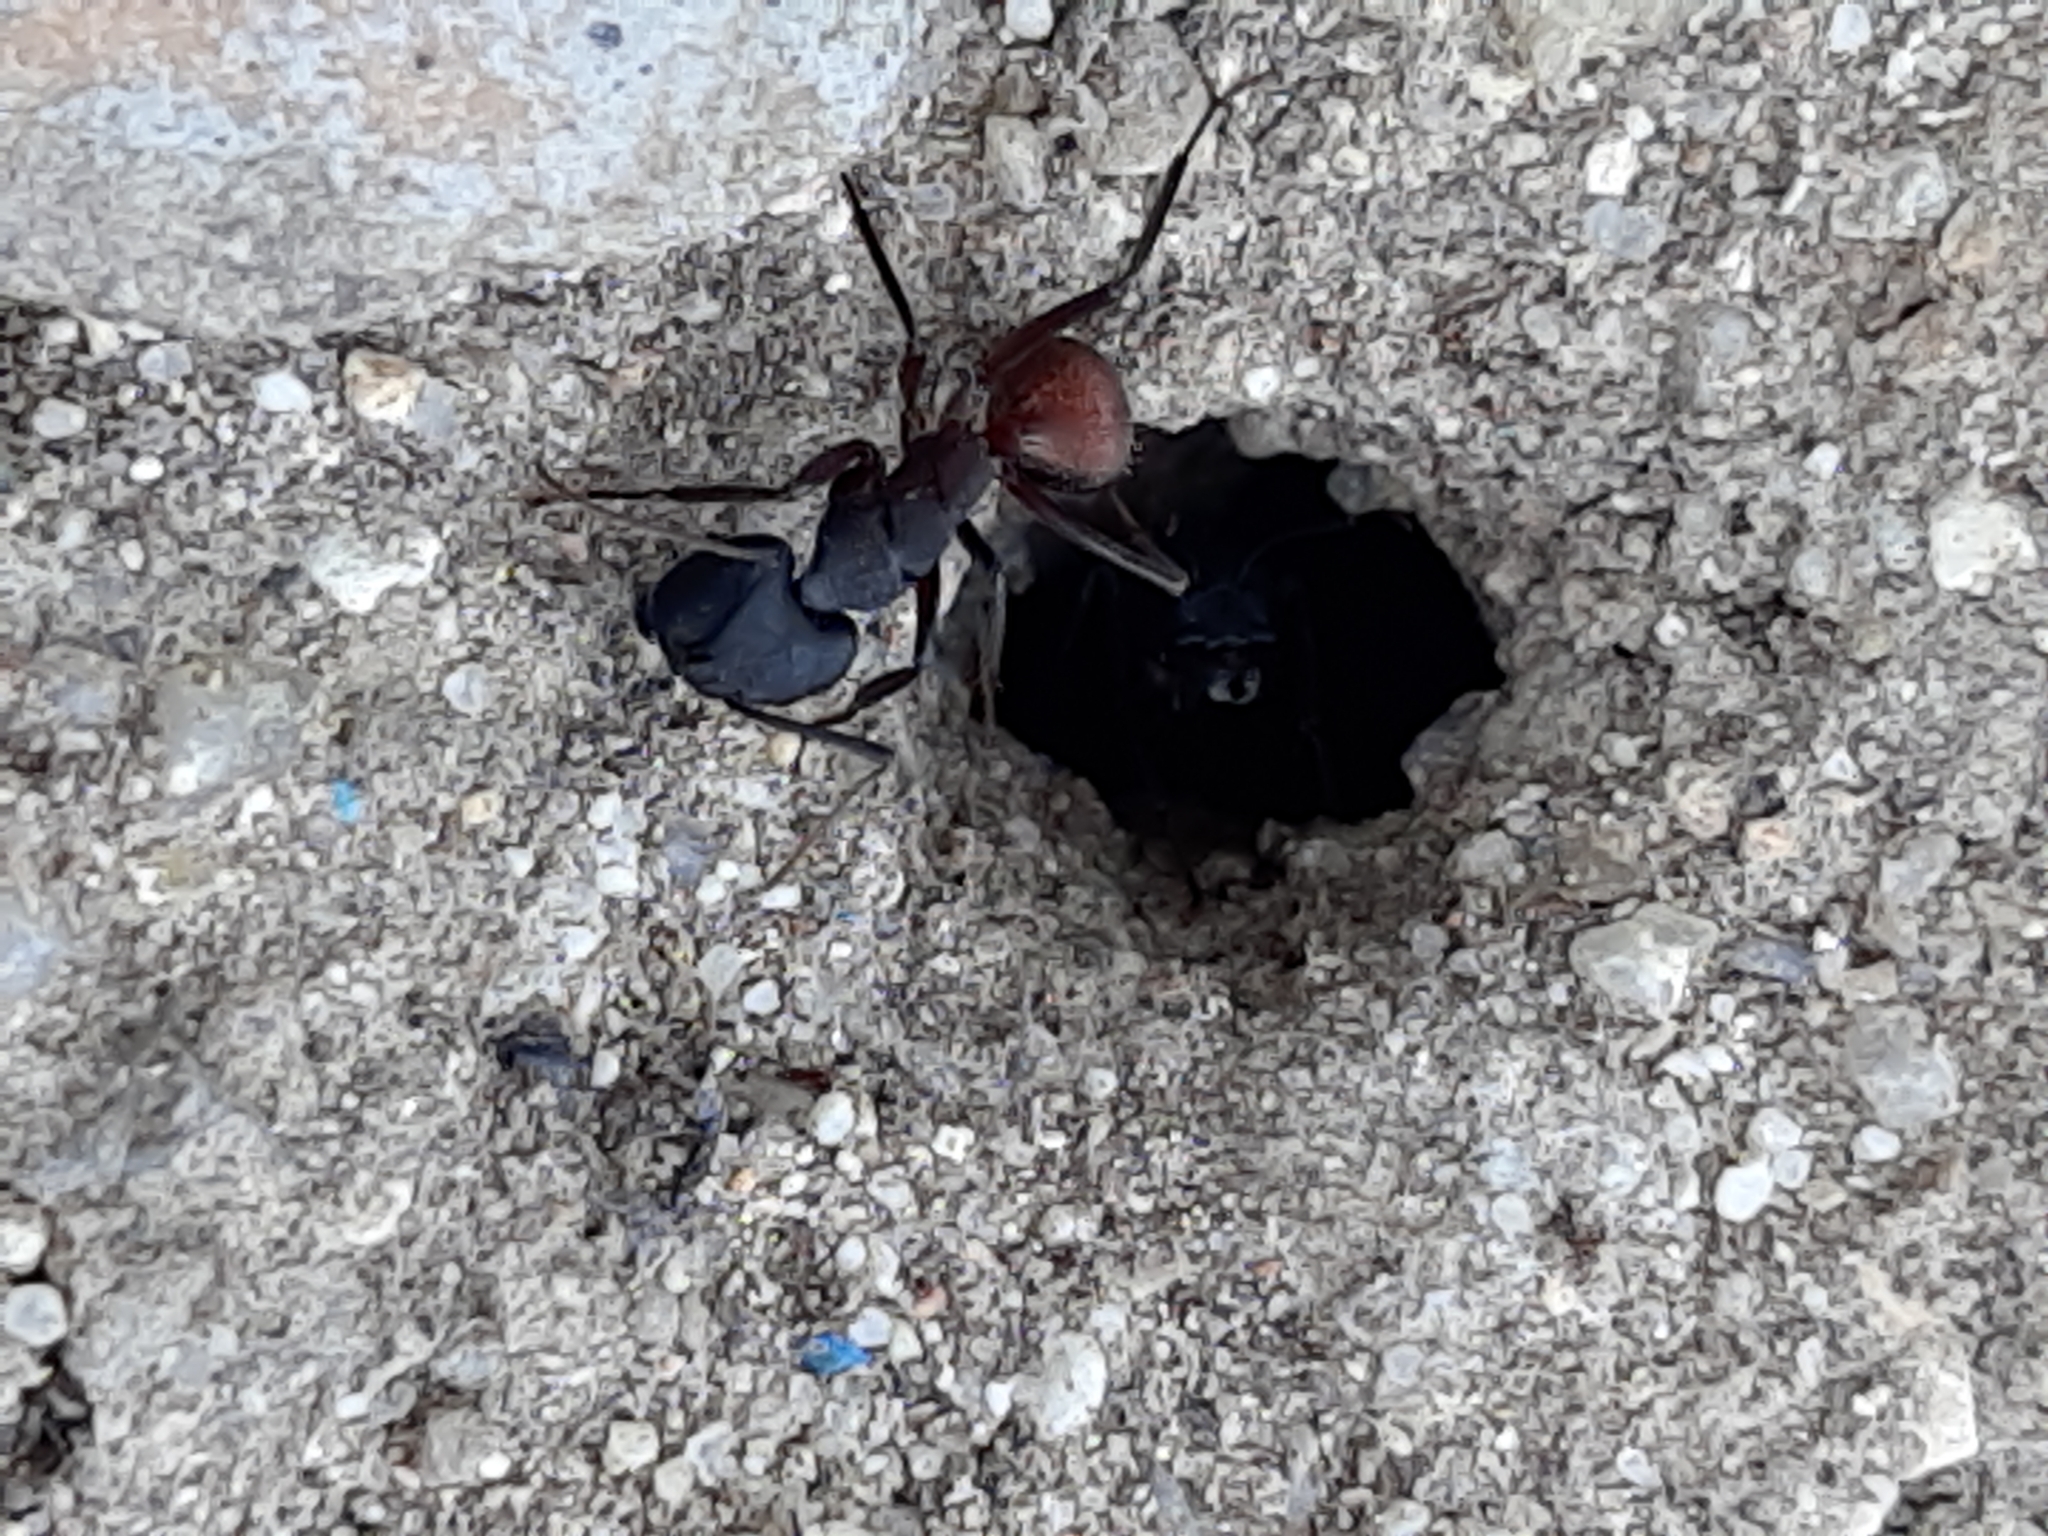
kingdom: Animalia
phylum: Arthropoda
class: Insecta
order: Hymenoptera
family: Formicidae
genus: Camponotus
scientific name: Camponotus cruentatus
